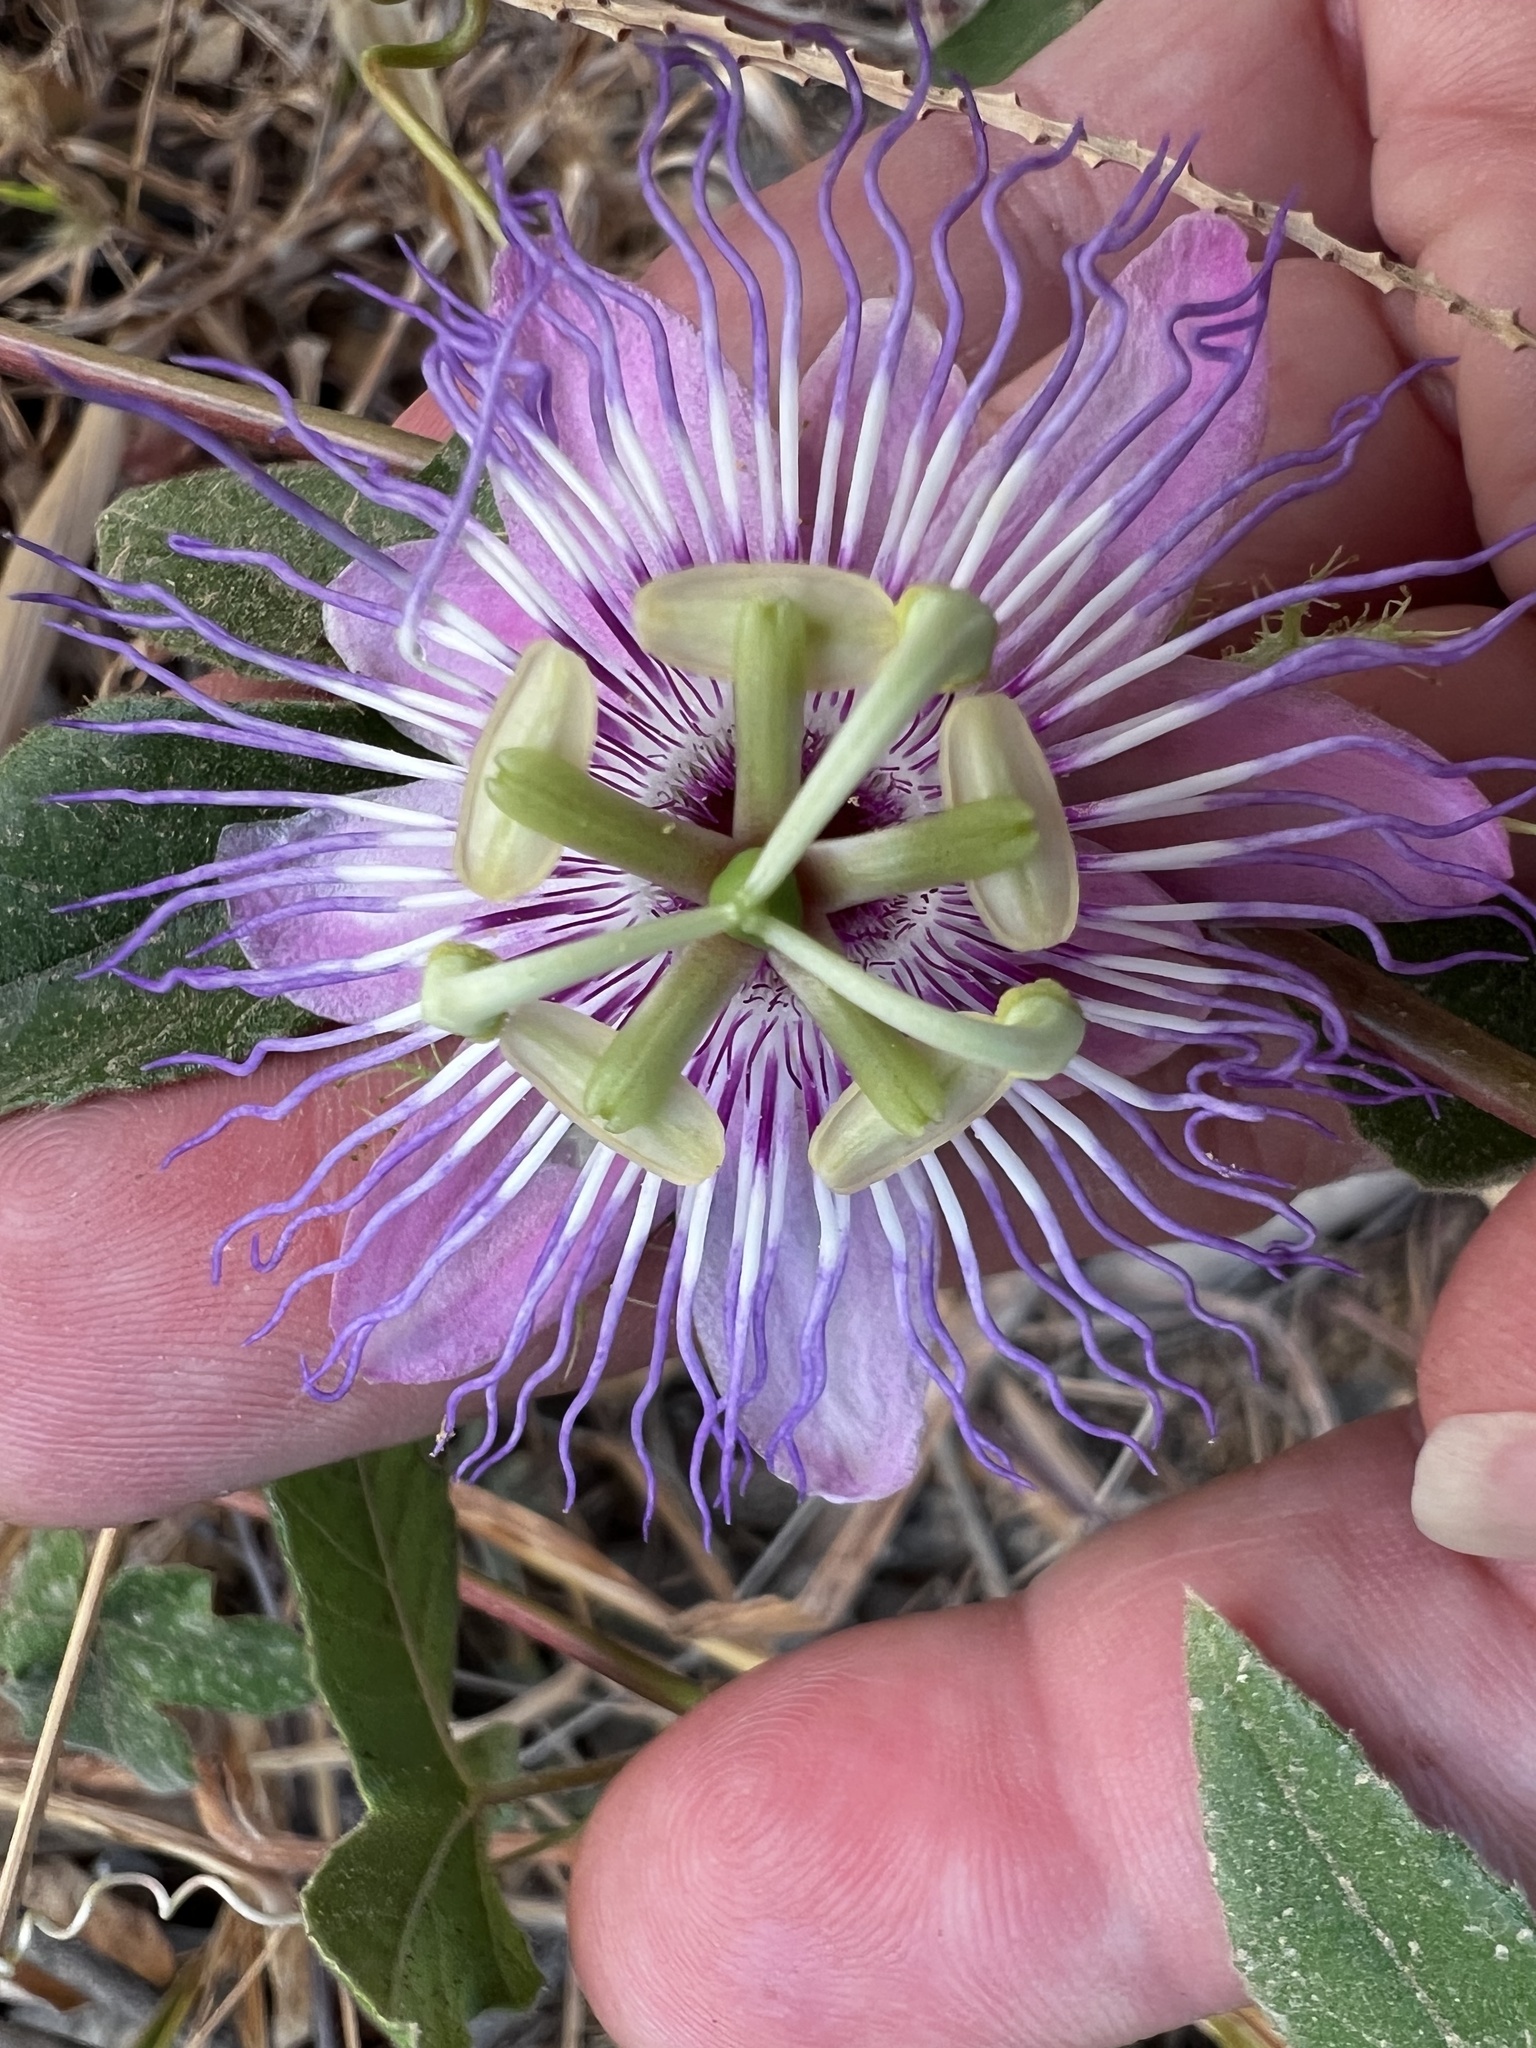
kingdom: Plantae
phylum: Tracheophyta
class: Magnoliopsida
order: Malpighiales
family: Passifloraceae
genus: Passiflora
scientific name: Passiflora
